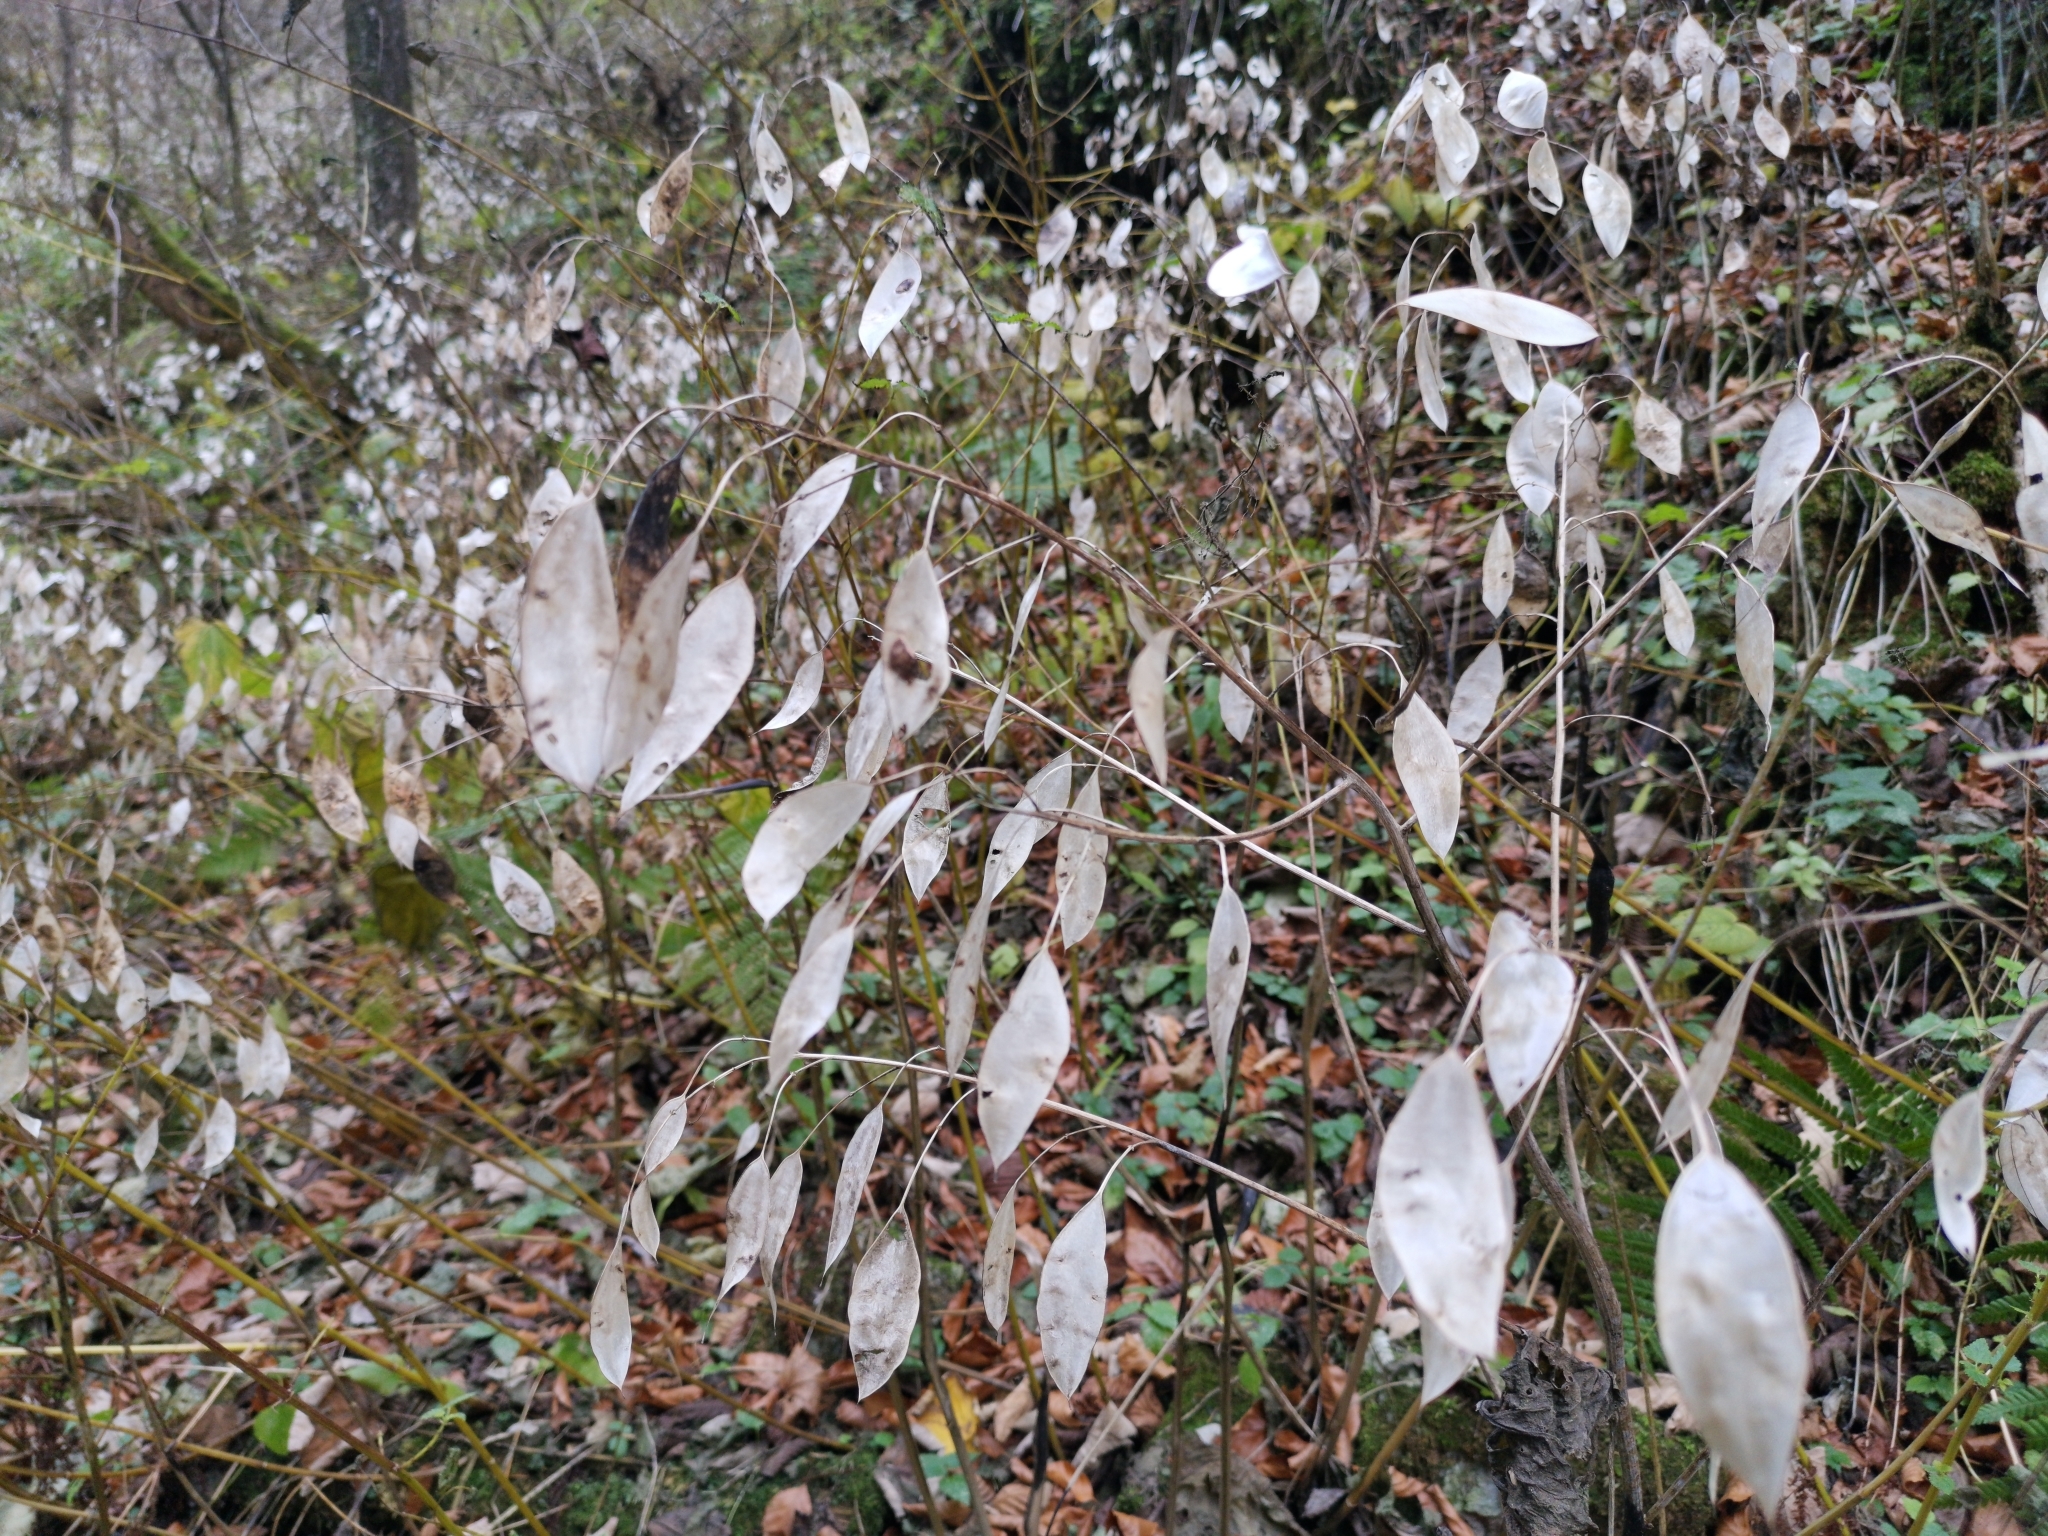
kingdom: Plantae
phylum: Tracheophyta
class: Magnoliopsida
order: Brassicales
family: Brassicaceae
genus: Lunaria
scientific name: Lunaria rediviva
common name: Perennial honesty
